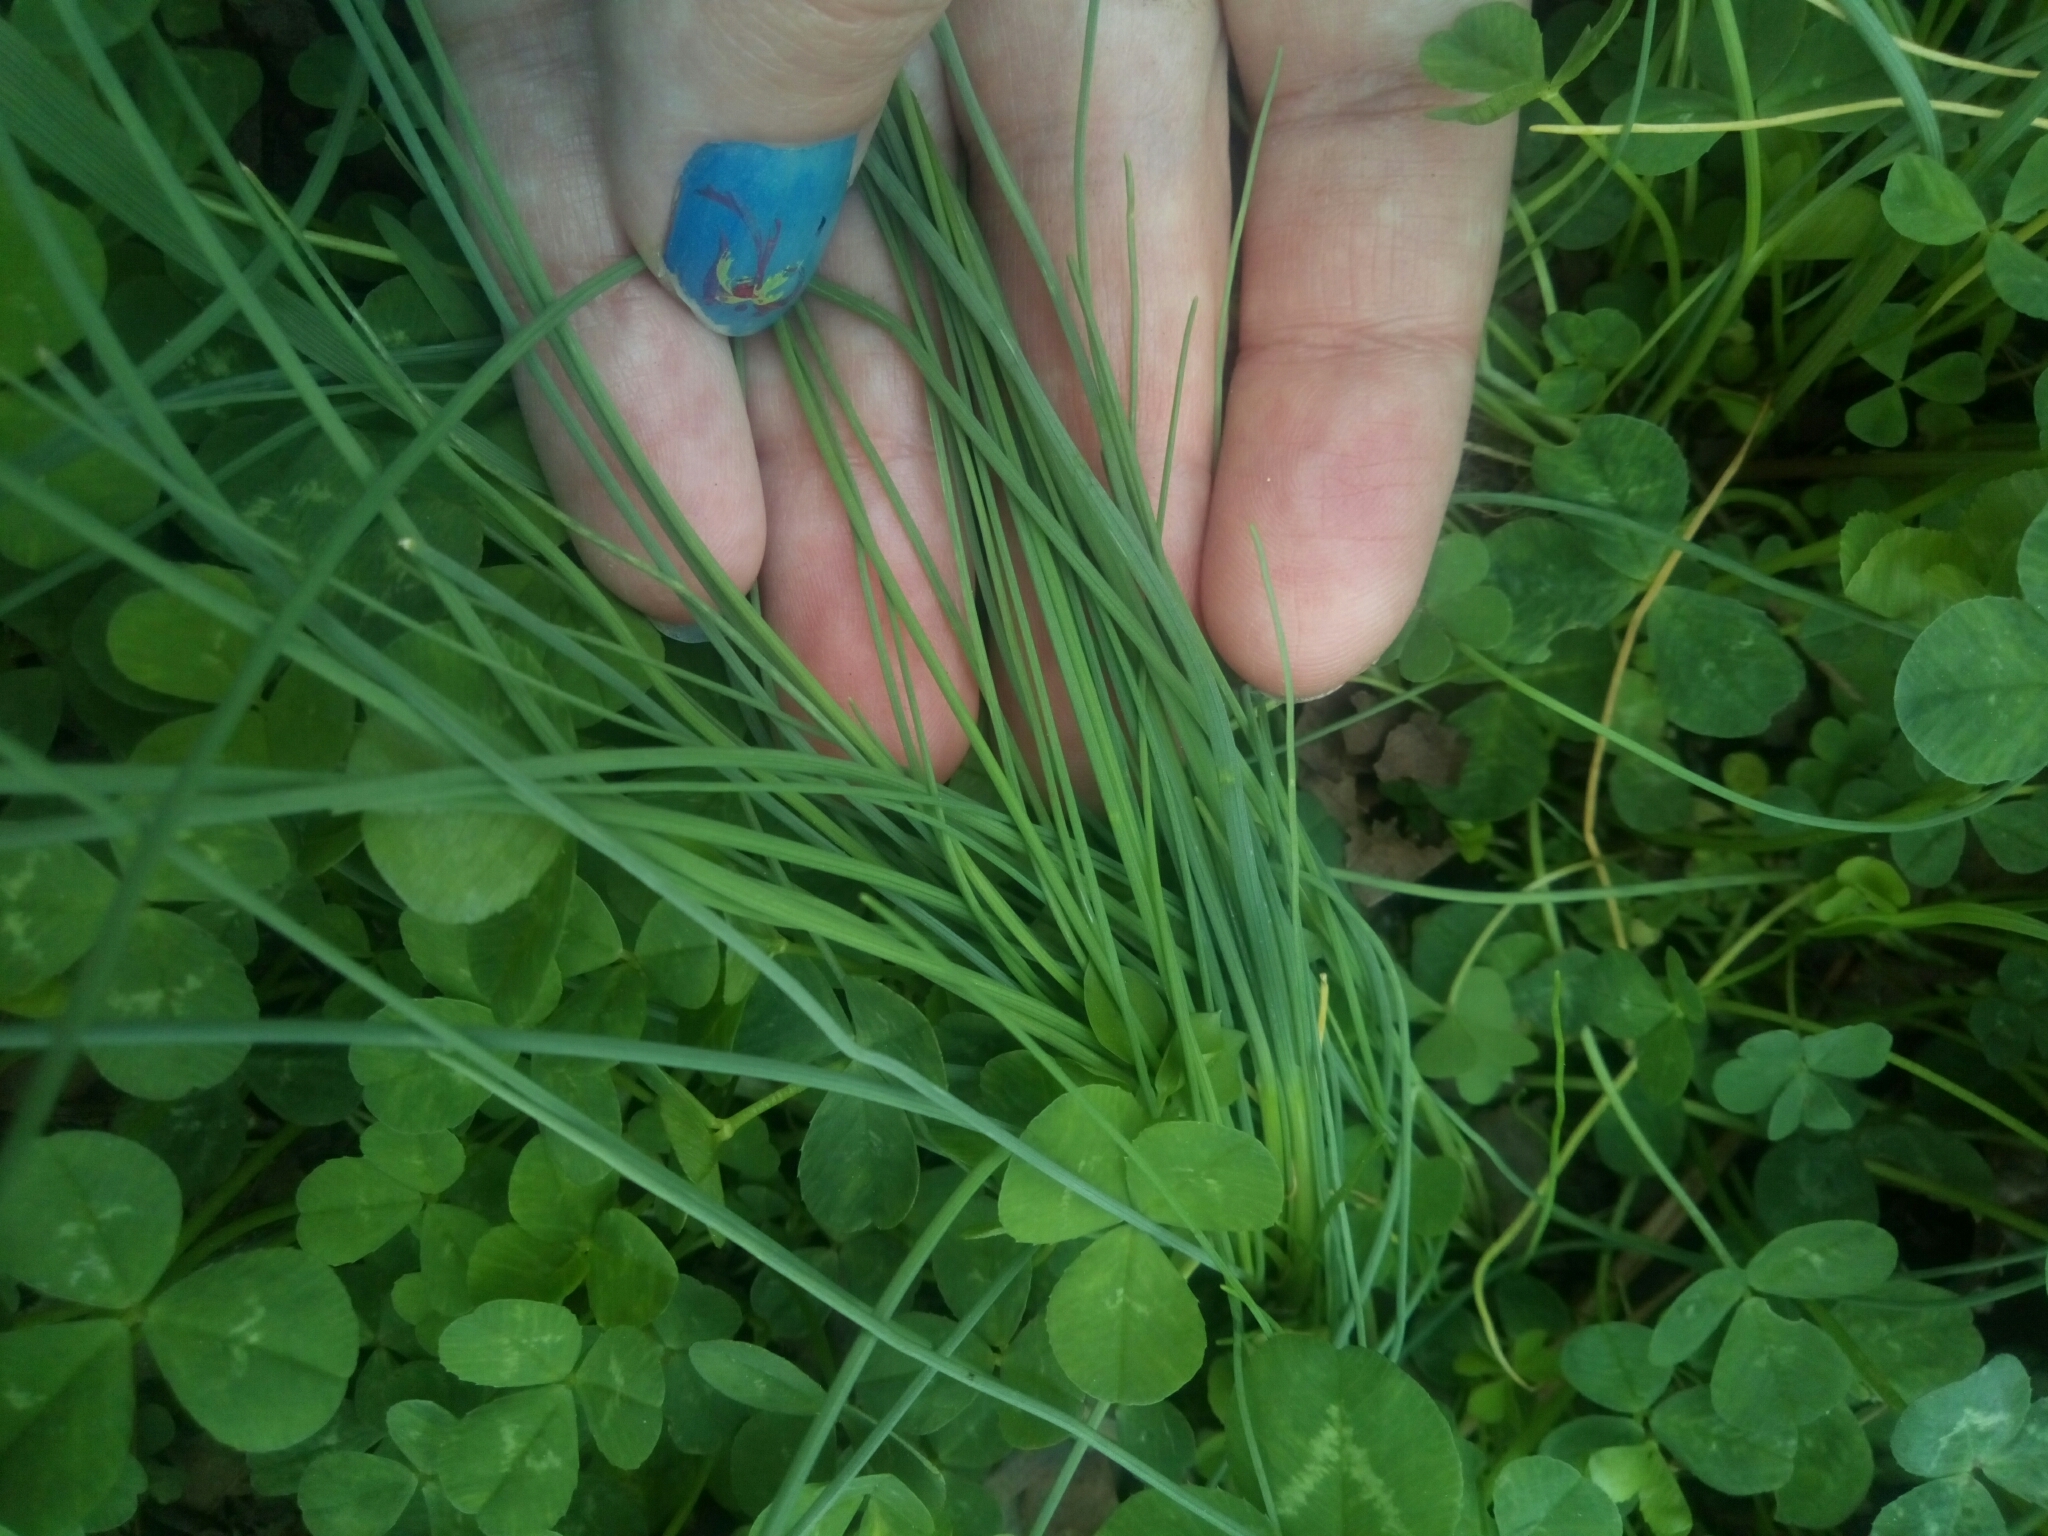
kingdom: Plantae
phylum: Tracheophyta
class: Liliopsida
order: Asparagales
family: Amaryllidaceae
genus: Allium
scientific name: Allium vineale
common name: Crow garlic
